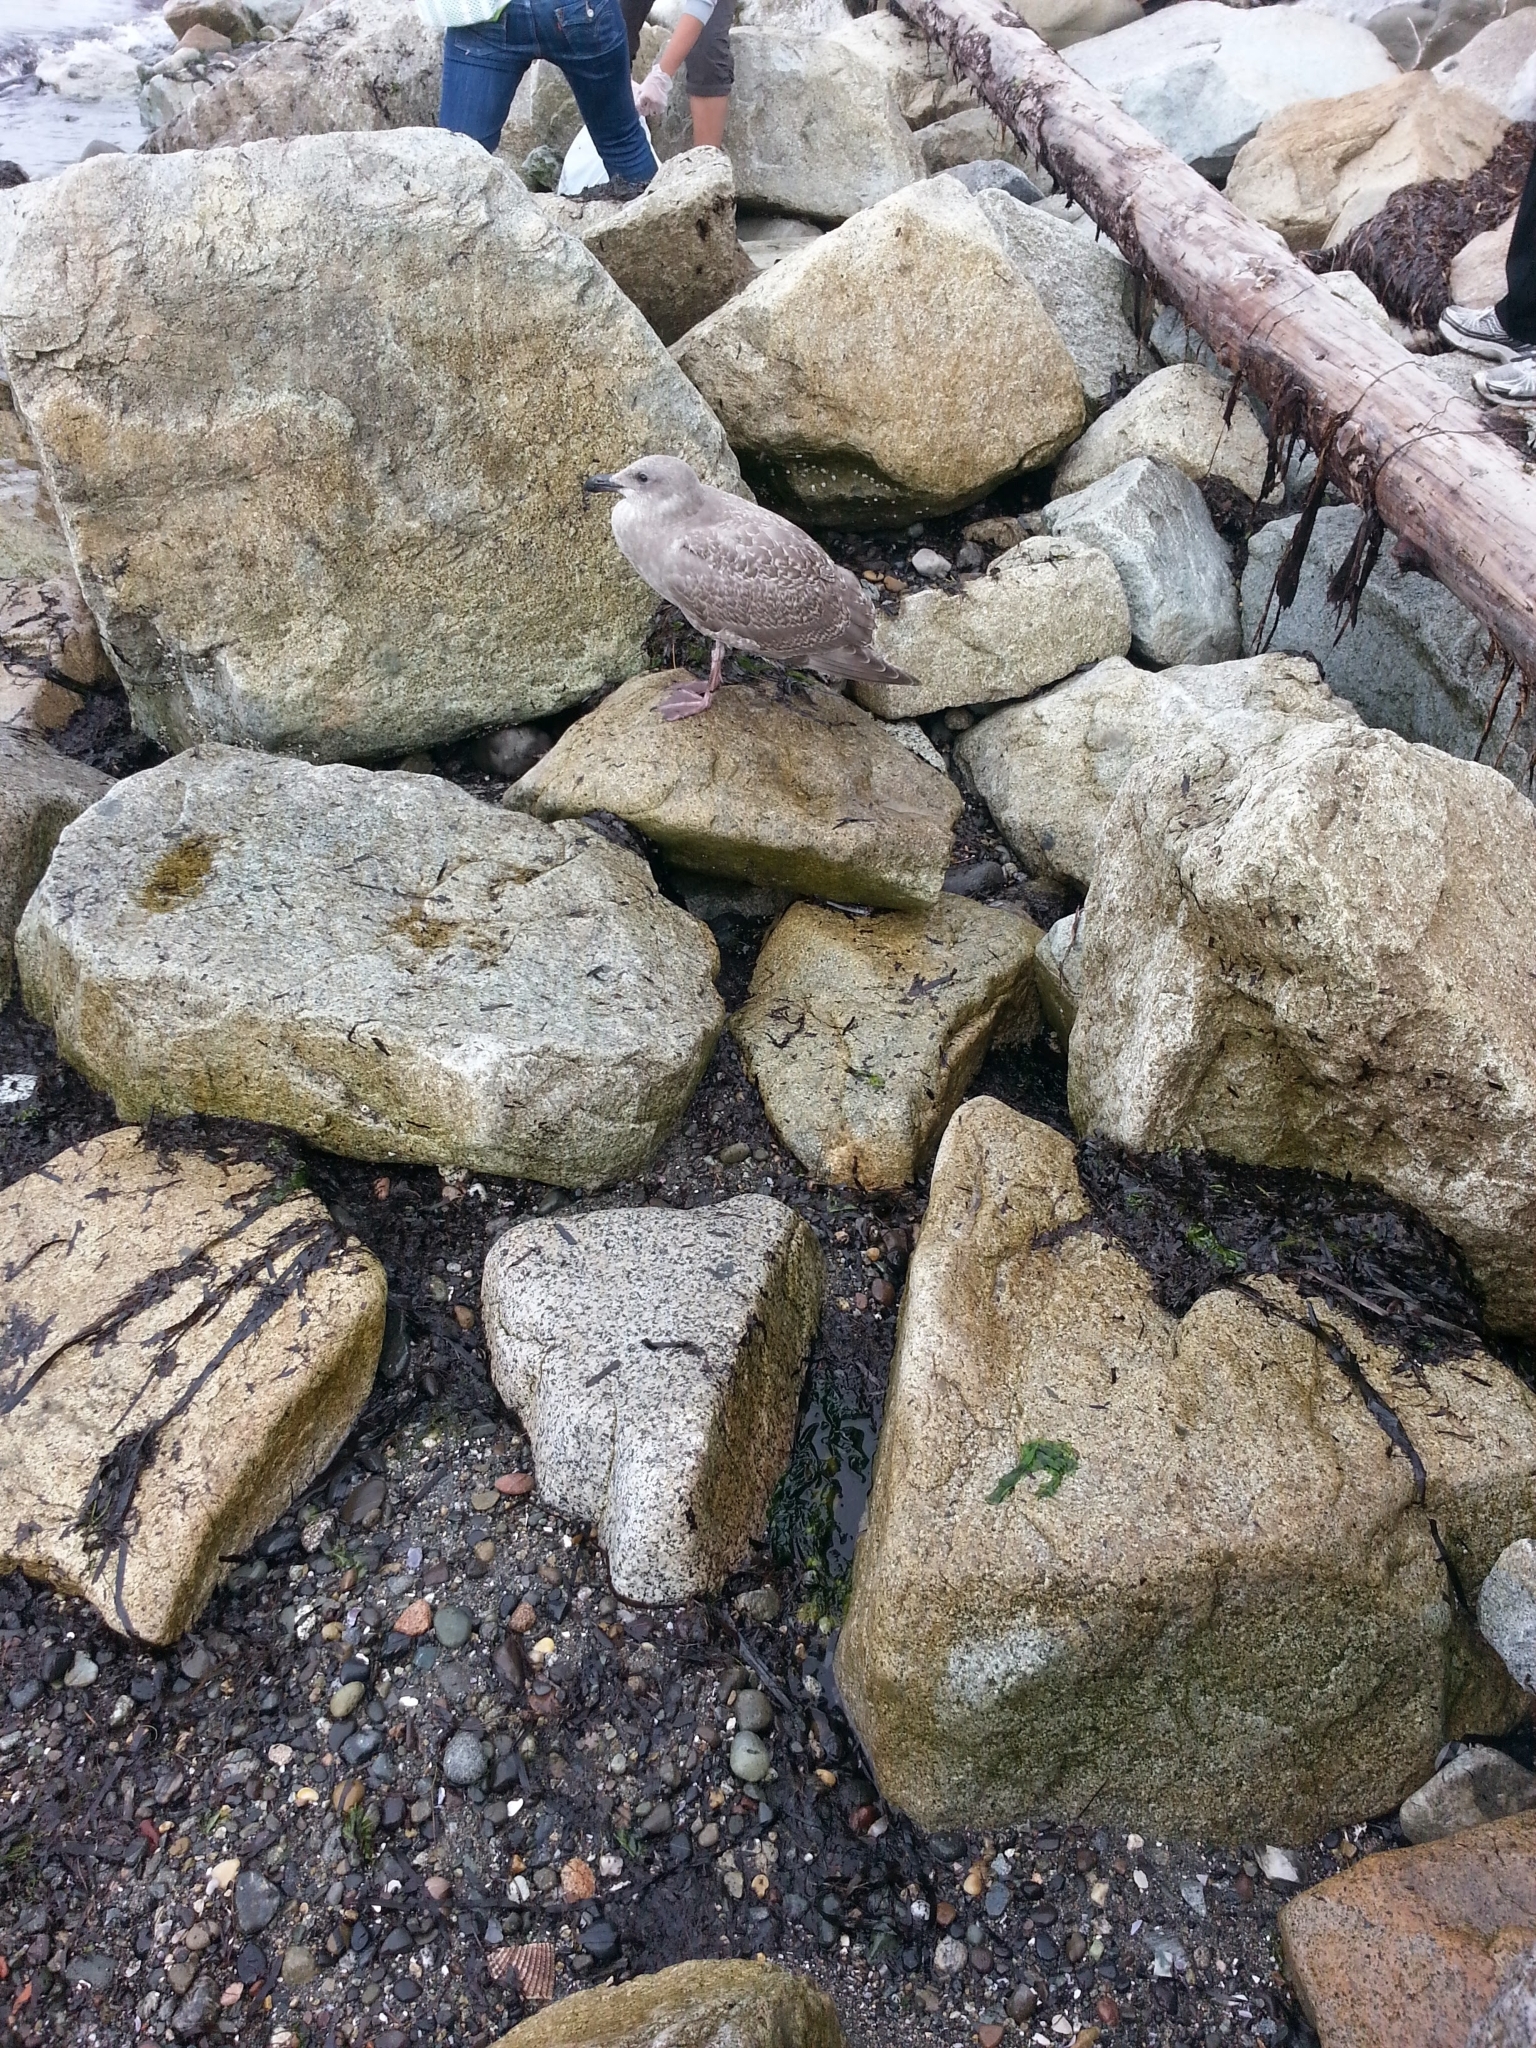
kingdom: Animalia
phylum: Chordata
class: Aves
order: Charadriiformes
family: Laridae
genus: Larus
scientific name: Larus glaucescens
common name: Glaucous-winged gull
